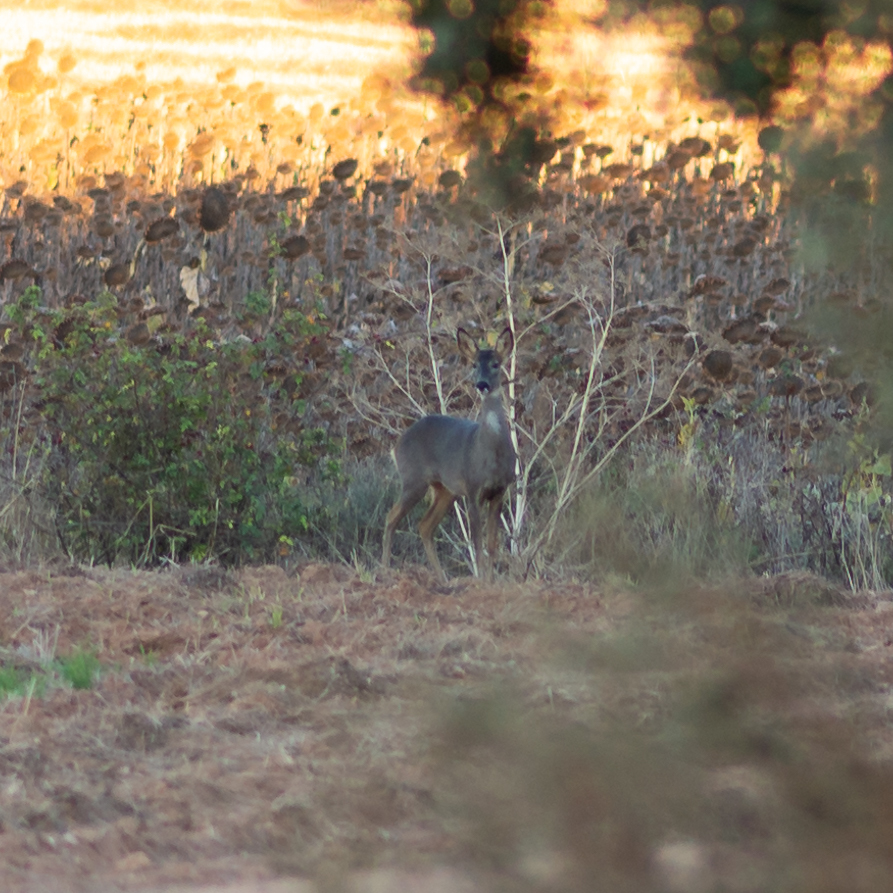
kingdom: Animalia
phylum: Chordata
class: Mammalia
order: Artiodactyla
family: Cervidae
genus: Capreolus
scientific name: Capreolus capreolus
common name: Western roe deer
